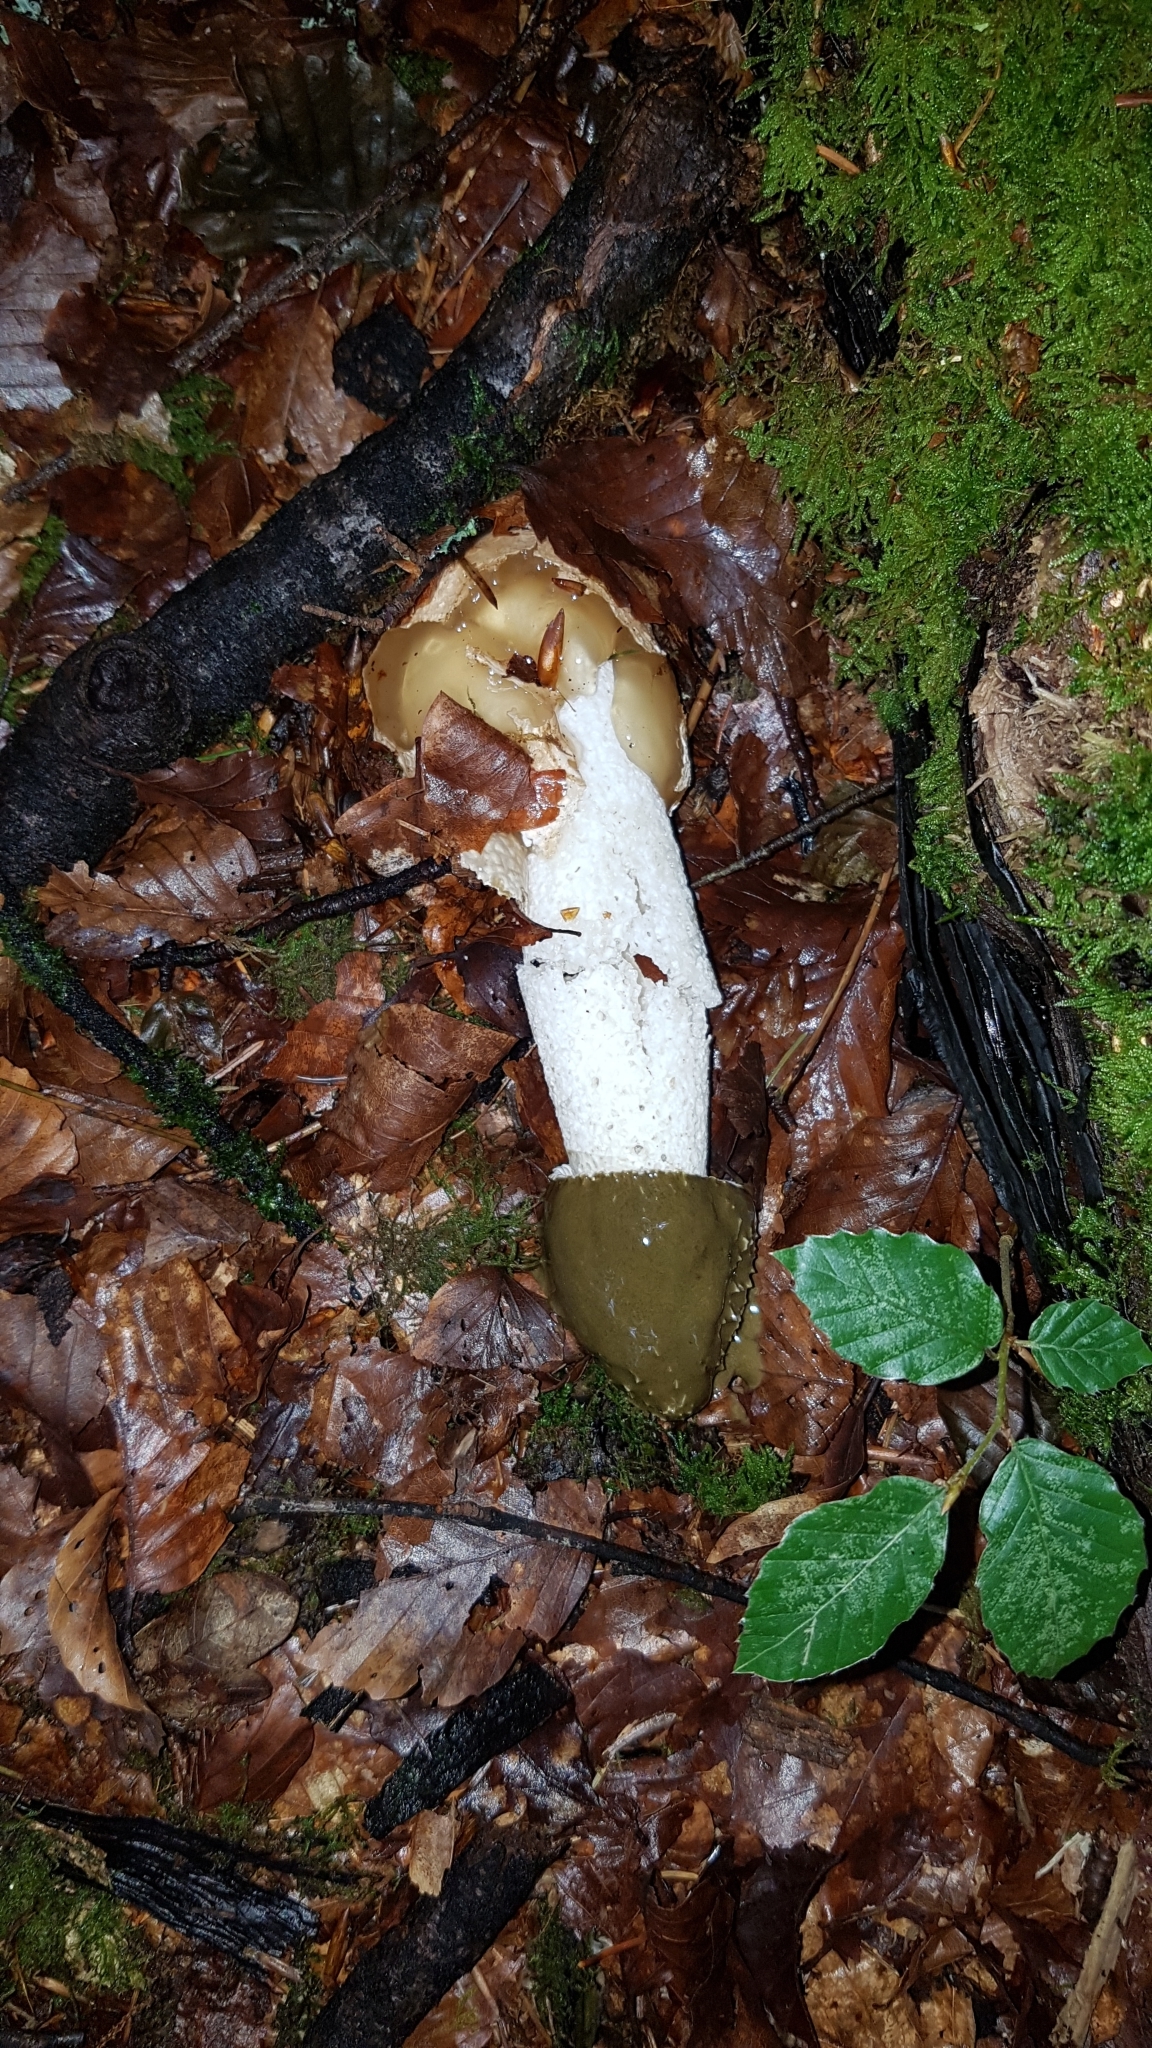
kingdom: Fungi
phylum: Basidiomycota
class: Agaricomycetes
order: Phallales
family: Phallaceae
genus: Phallus
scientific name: Phallus impudicus
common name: Common stinkhorn
